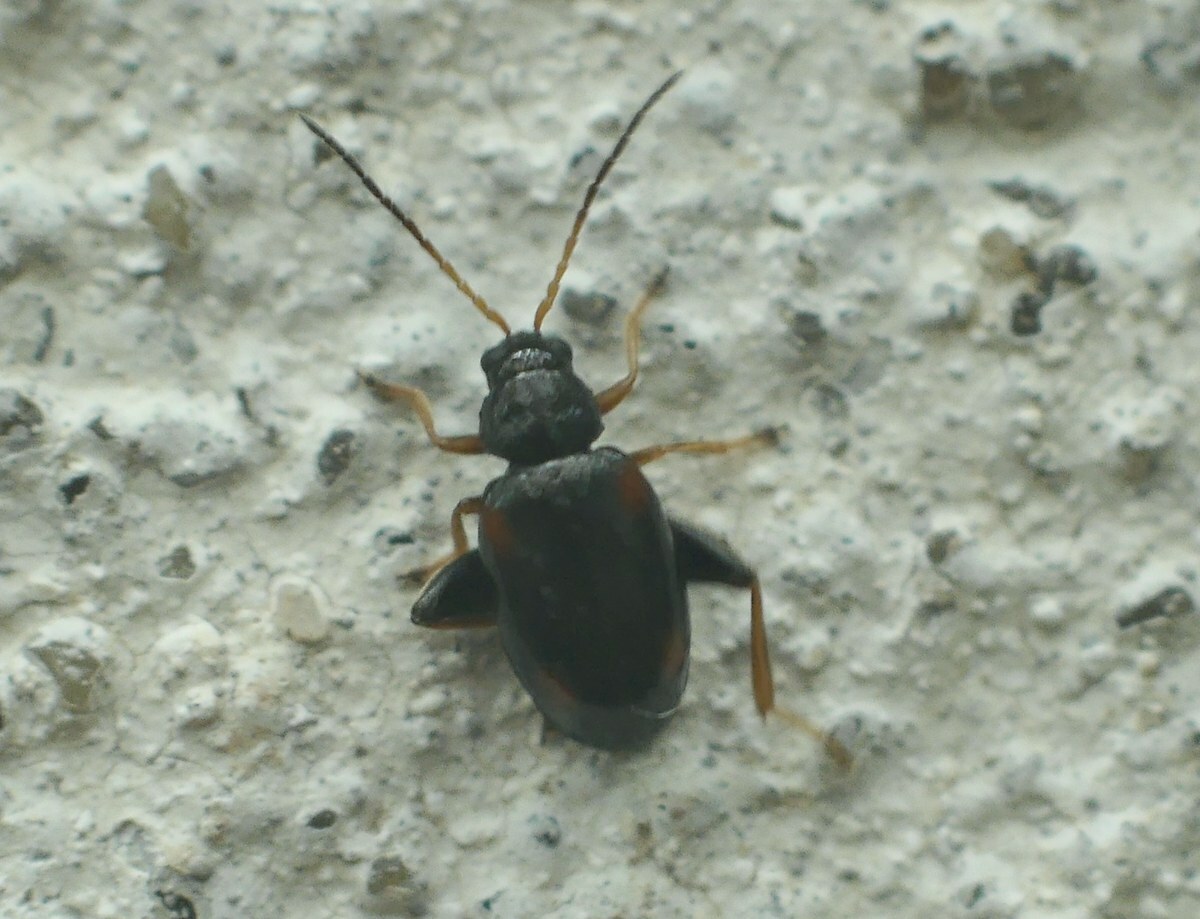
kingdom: Animalia
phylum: Arthropoda
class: Insecta
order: Coleoptera
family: Chrysomelidae
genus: Longitarsus
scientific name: Longitarsus quadriguttatus
